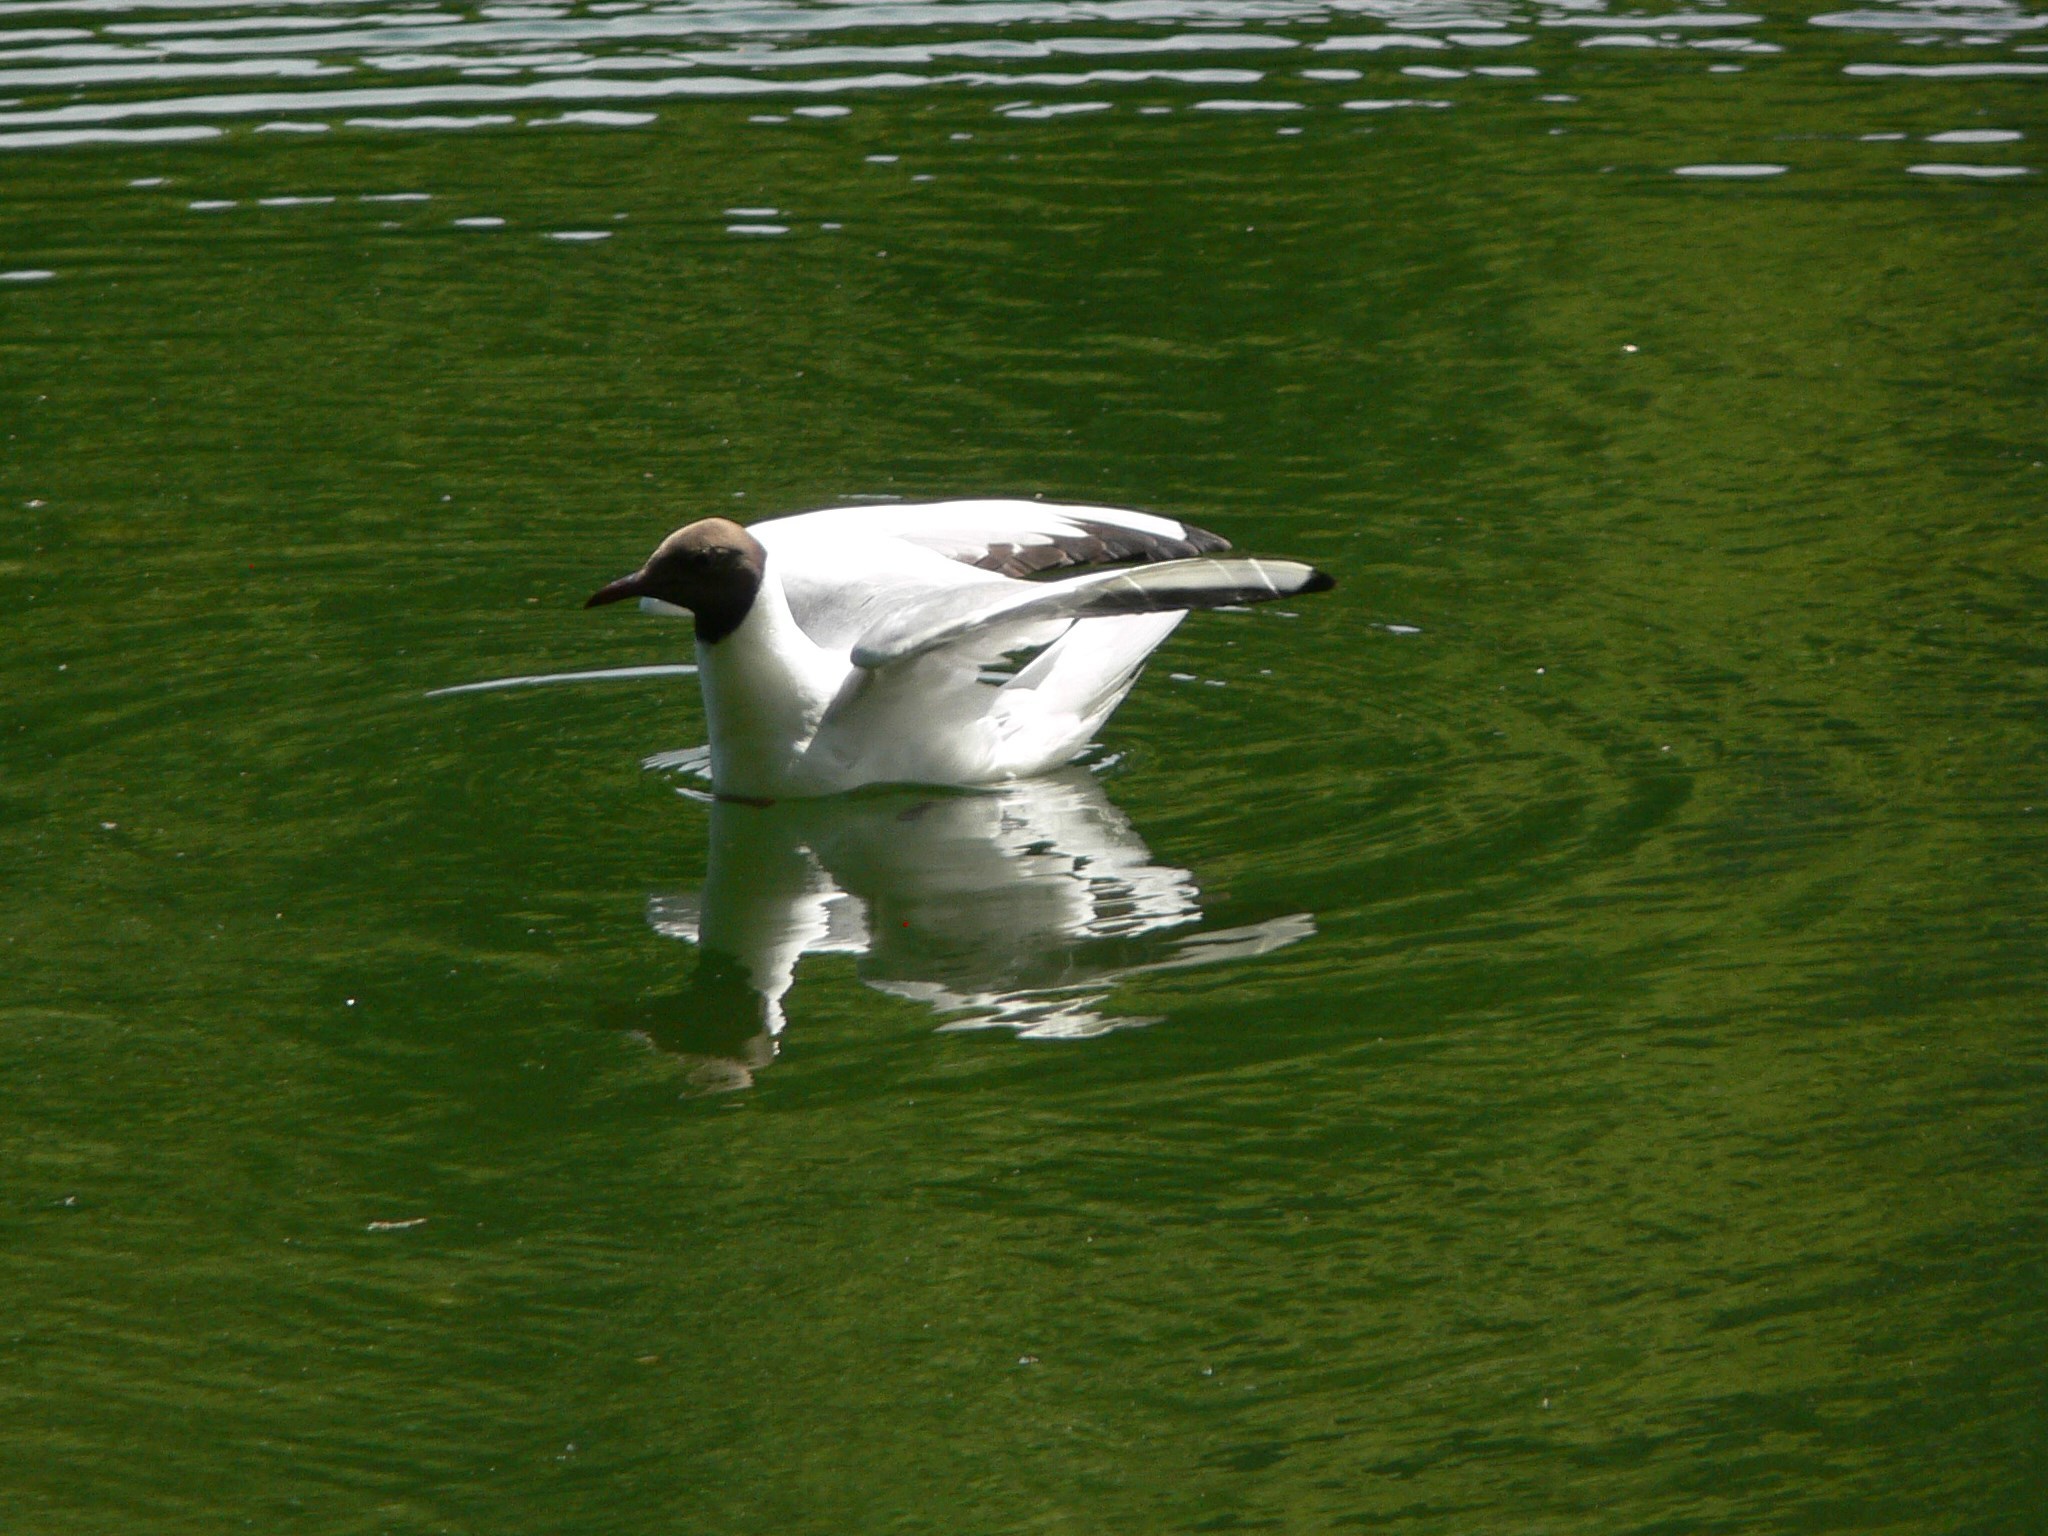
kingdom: Animalia
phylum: Chordata
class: Aves
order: Charadriiformes
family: Laridae
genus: Chroicocephalus
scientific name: Chroicocephalus ridibundus
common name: Black-headed gull
